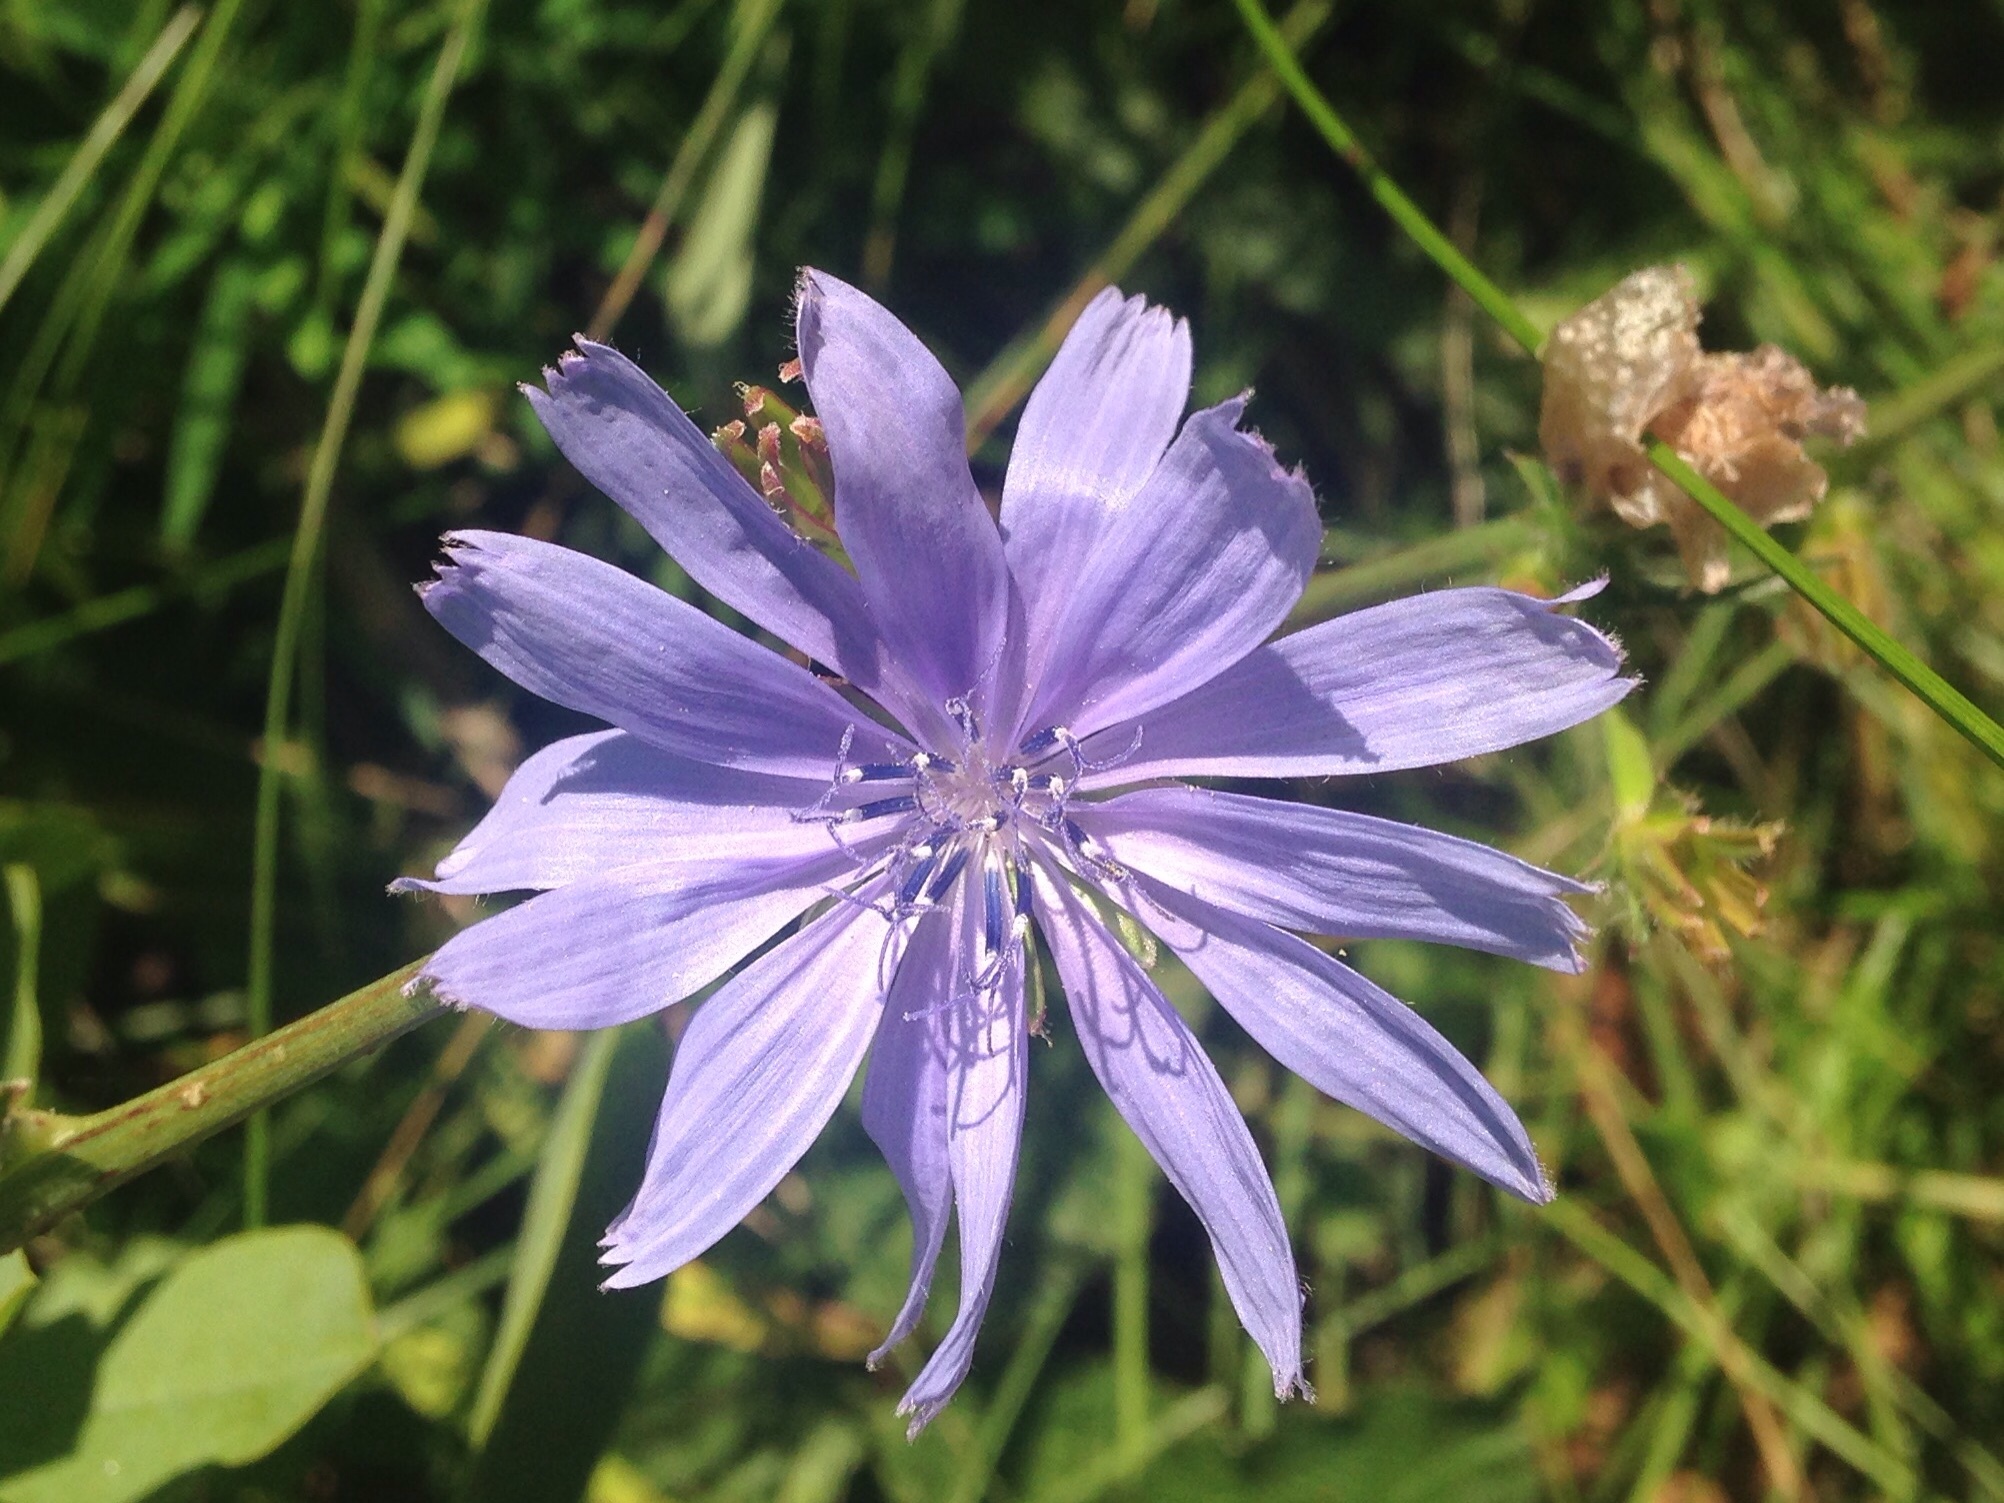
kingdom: Plantae
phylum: Tracheophyta
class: Magnoliopsida
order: Asterales
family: Asteraceae
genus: Cichorium
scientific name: Cichorium intybus
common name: Chicory
